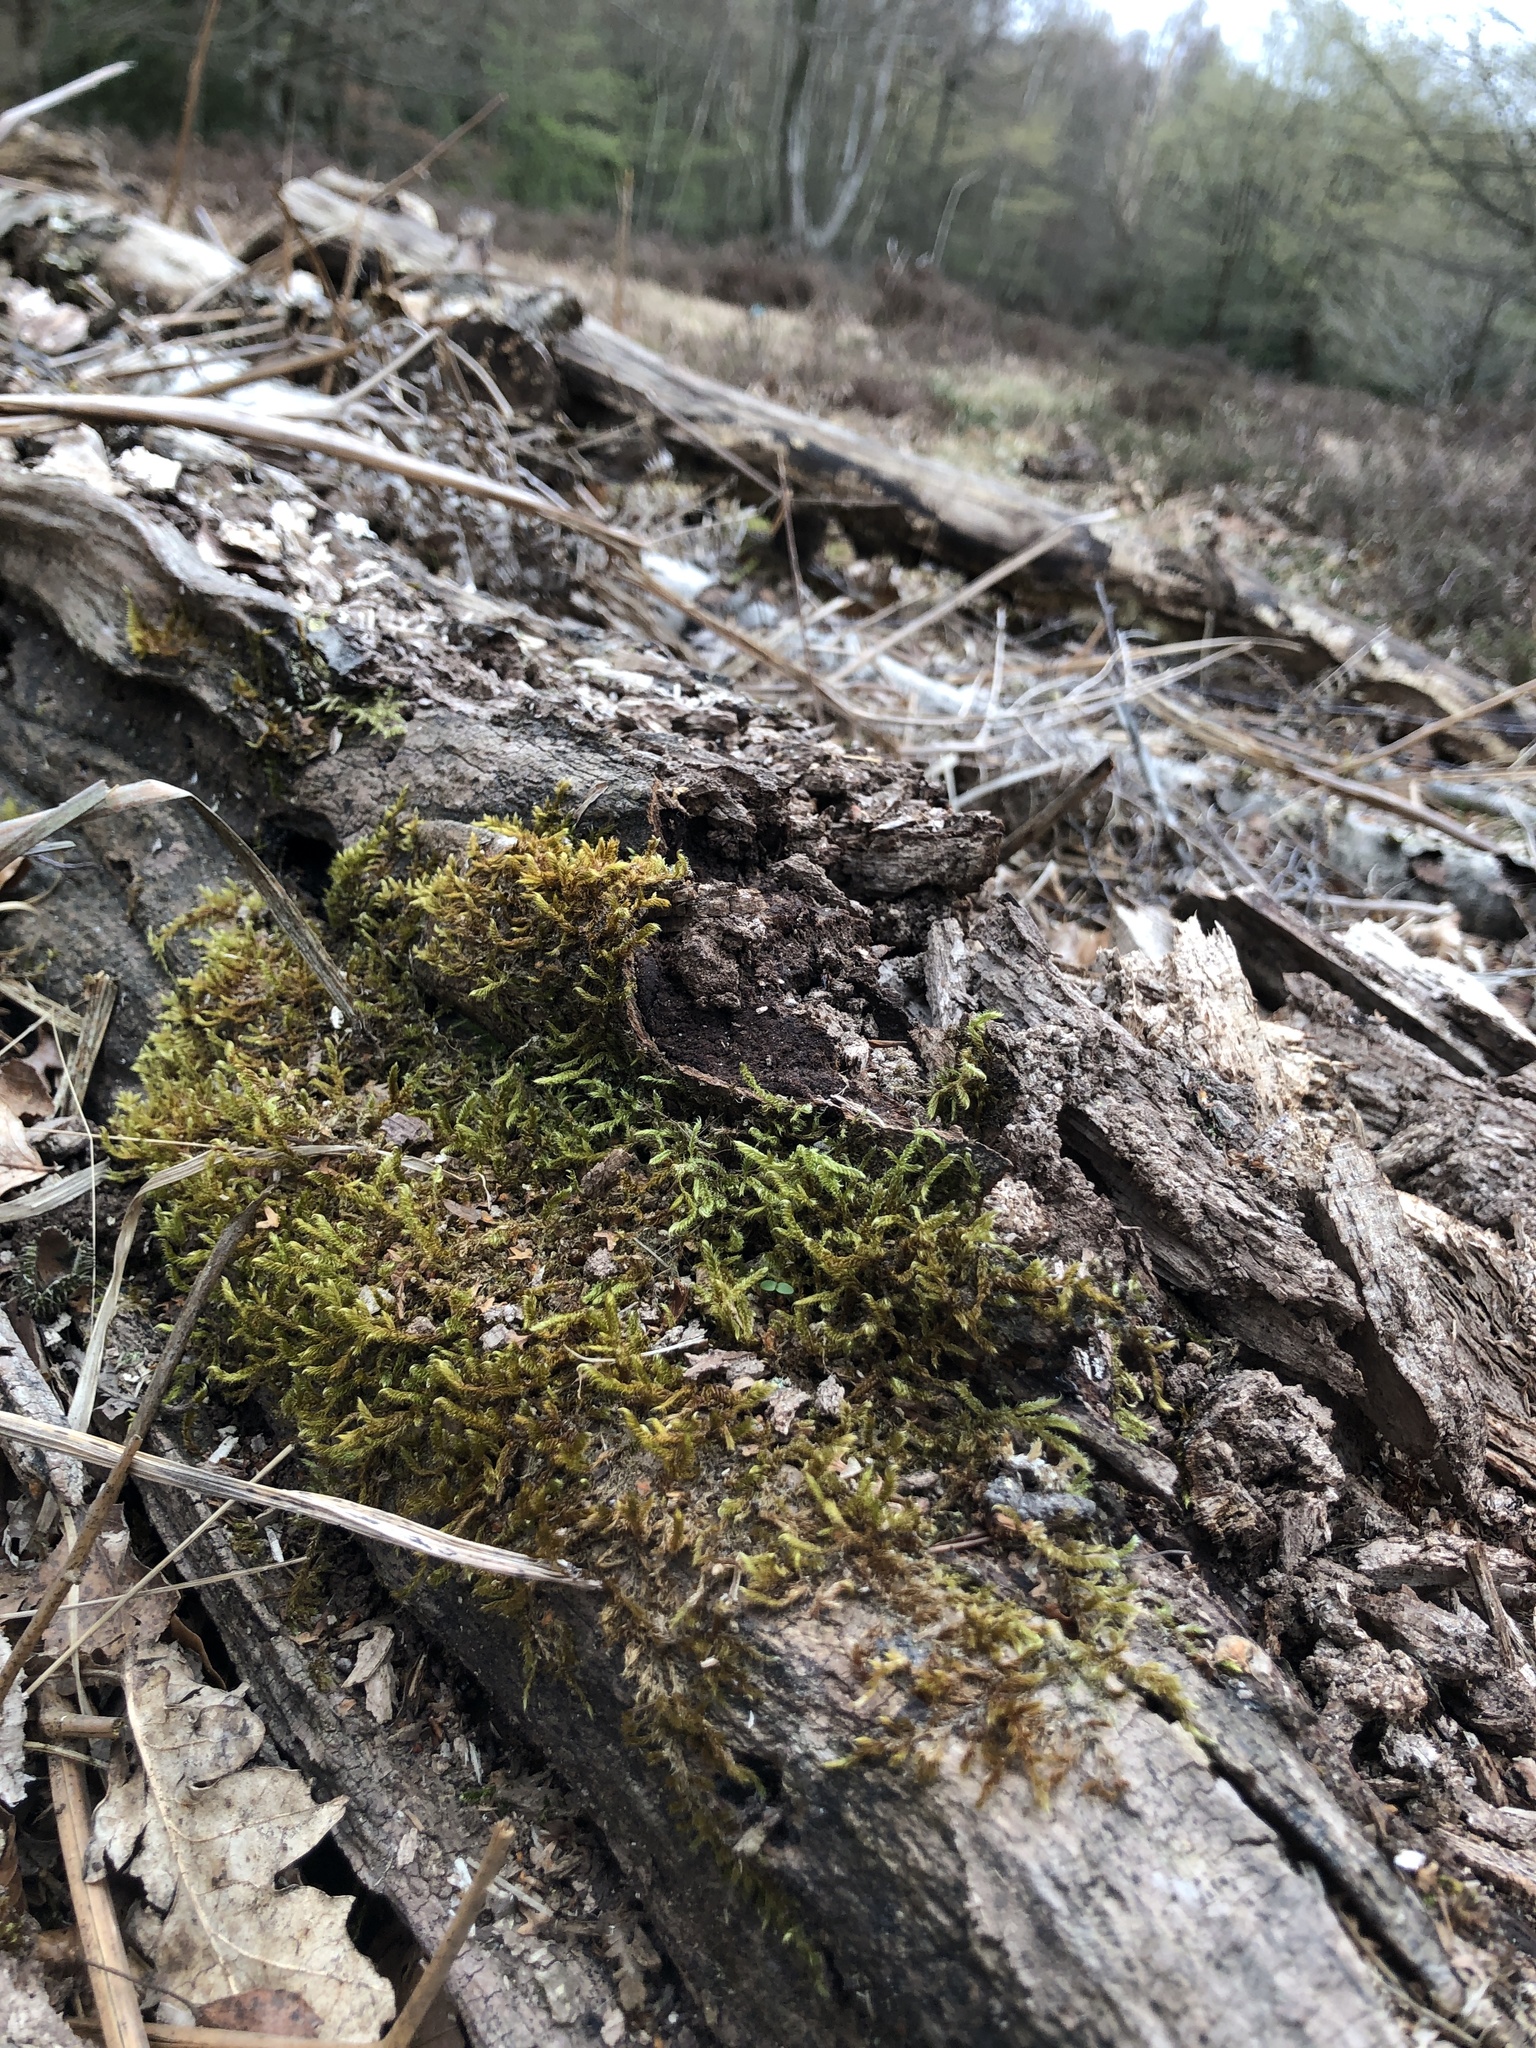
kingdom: Plantae
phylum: Bryophyta
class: Bryopsida
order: Hypnales
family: Hypnaceae
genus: Hypnum
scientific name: Hypnum cupressiforme
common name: Cypress-leaved plait-moss
